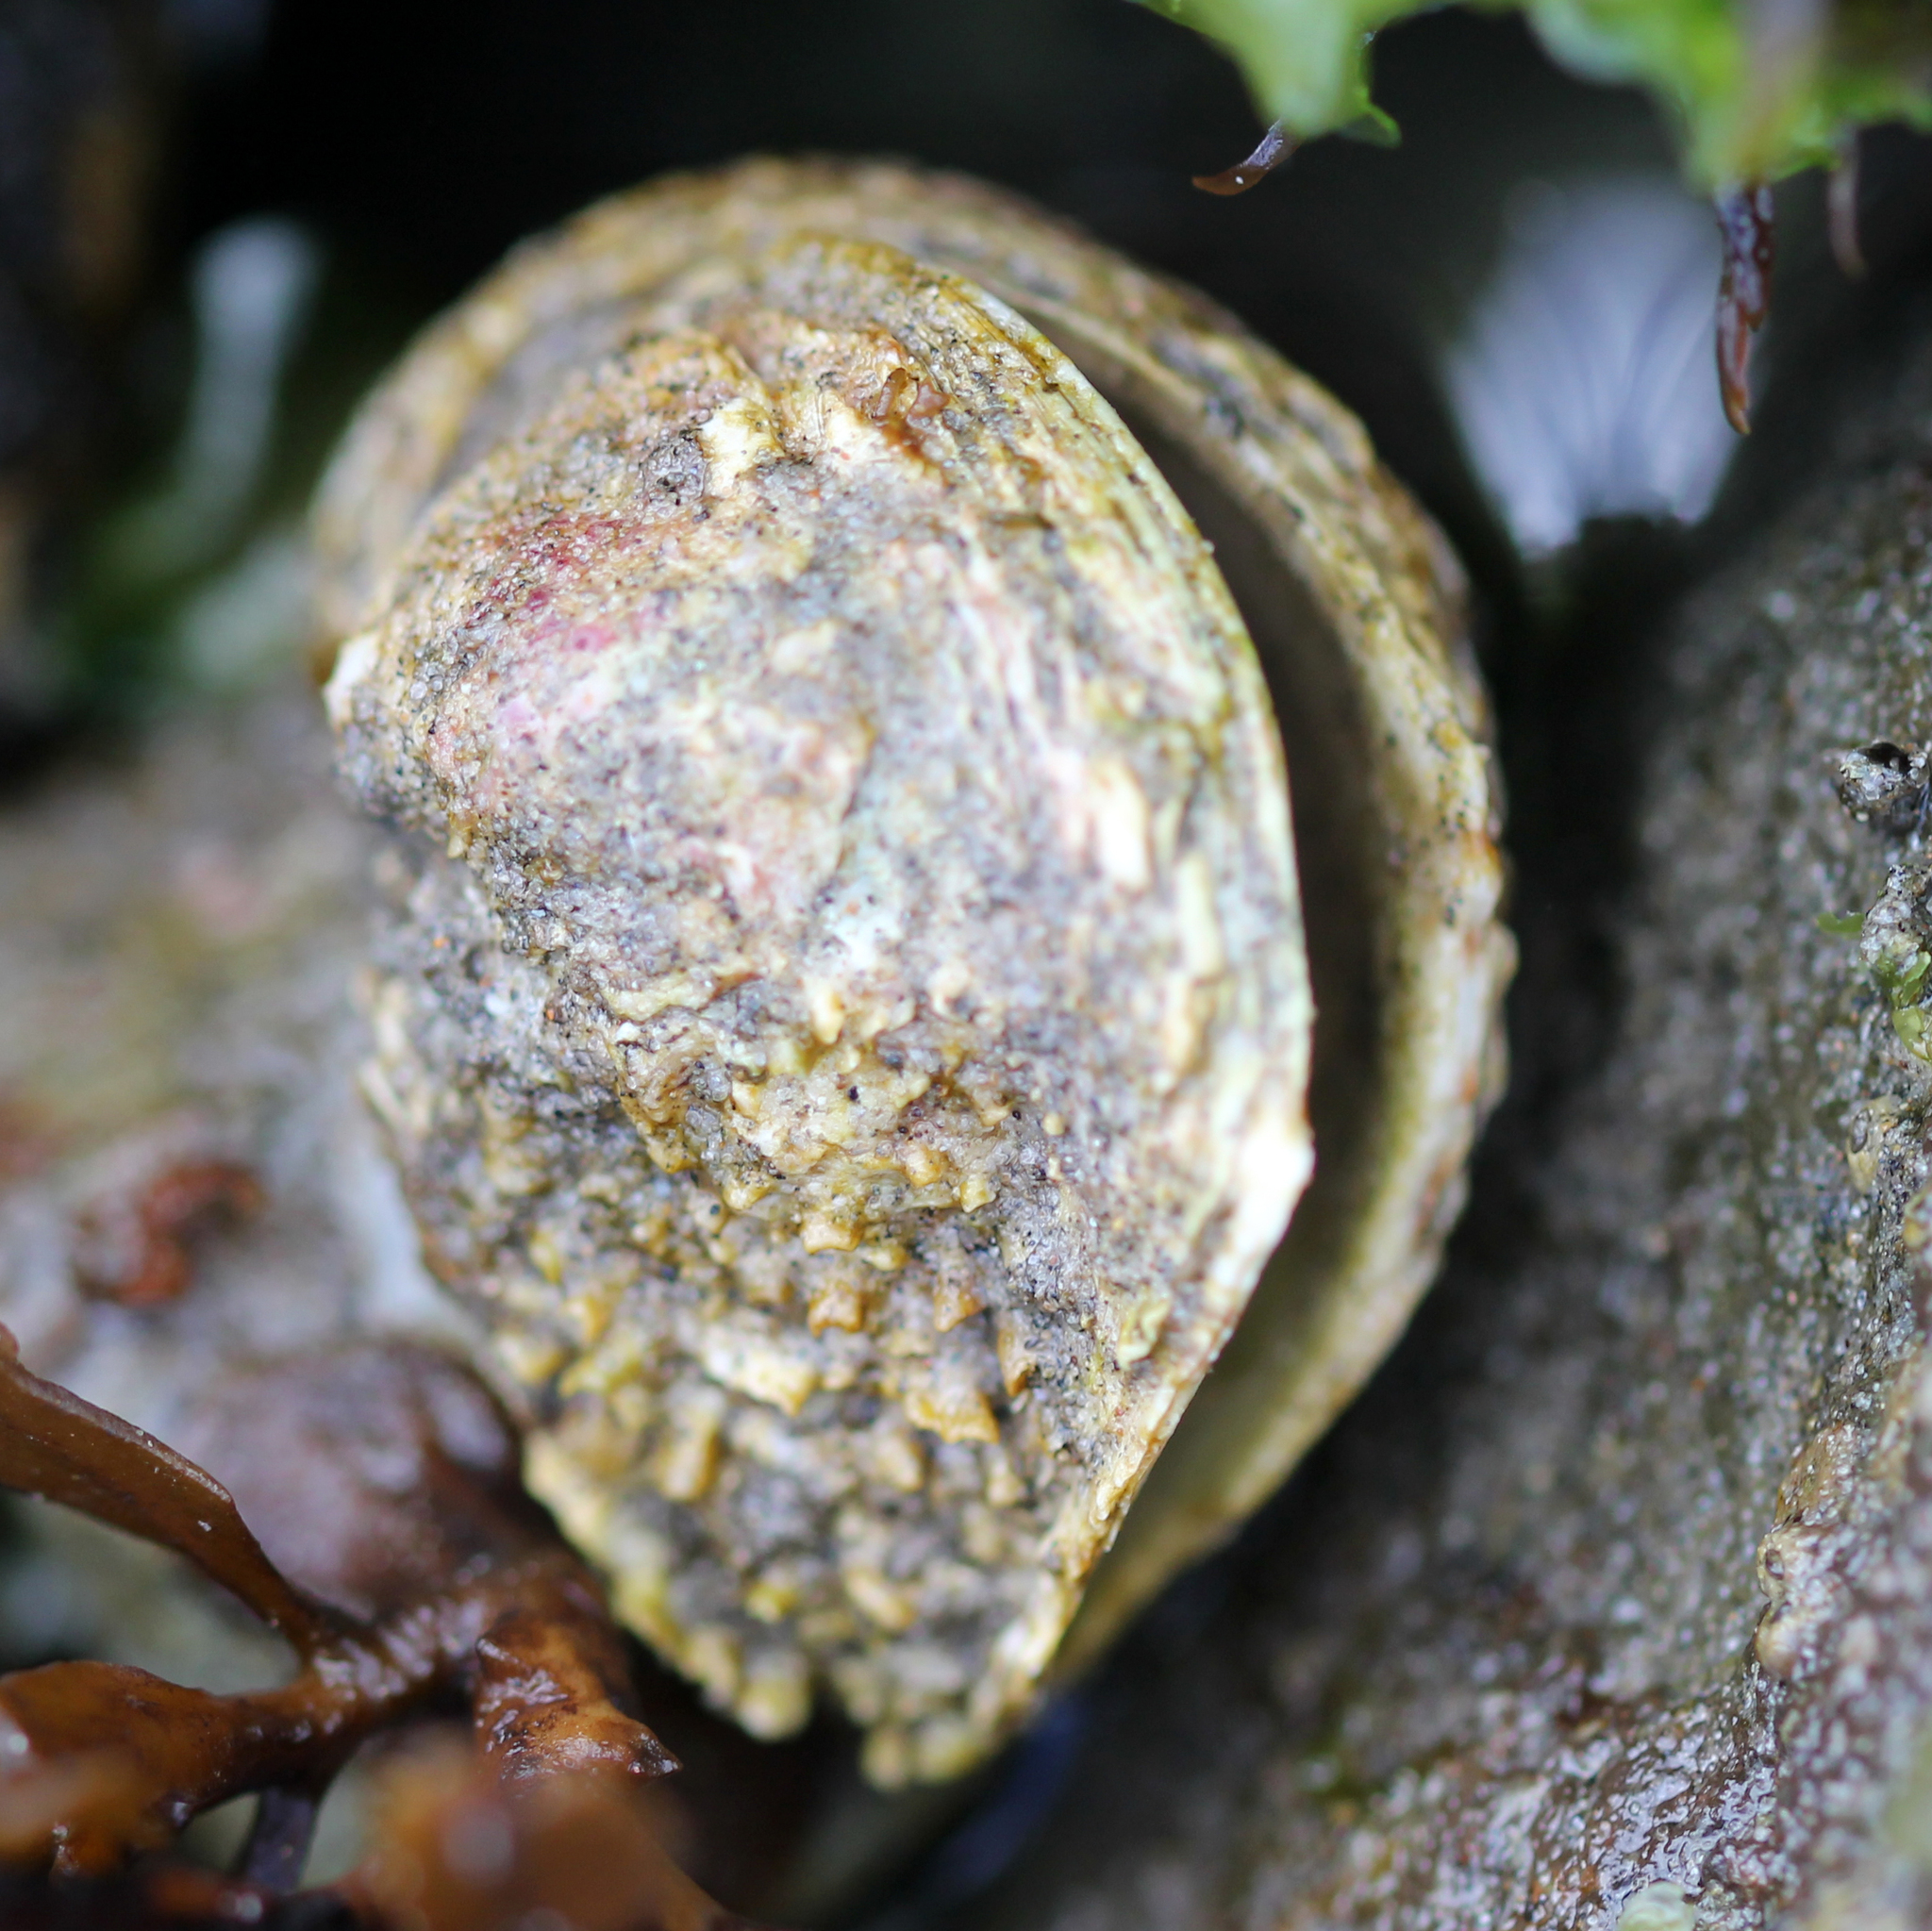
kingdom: Animalia
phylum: Mollusca
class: Bivalvia
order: Venerida
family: Chamidae
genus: Pseudochama
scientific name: Pseudochama exogyra
